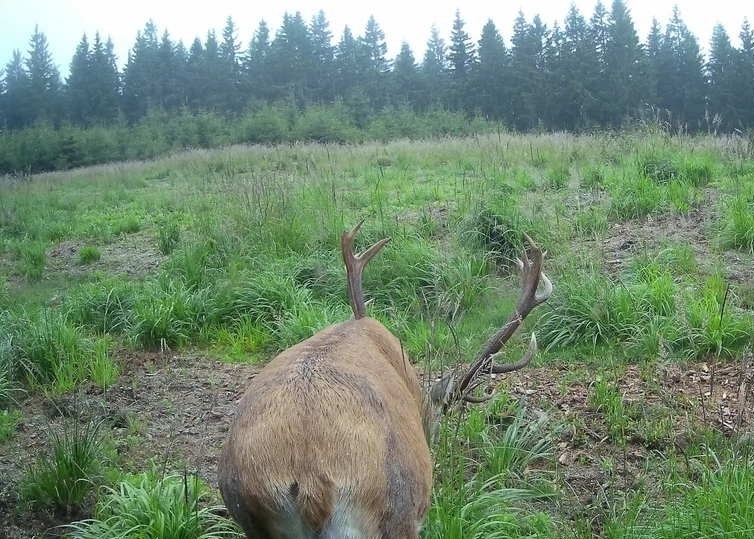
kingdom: Animalia
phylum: Chordata
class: Mammalia
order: Artiodactyla
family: Cervidae
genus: Cervus
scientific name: Cervus elaphus
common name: Red deer
